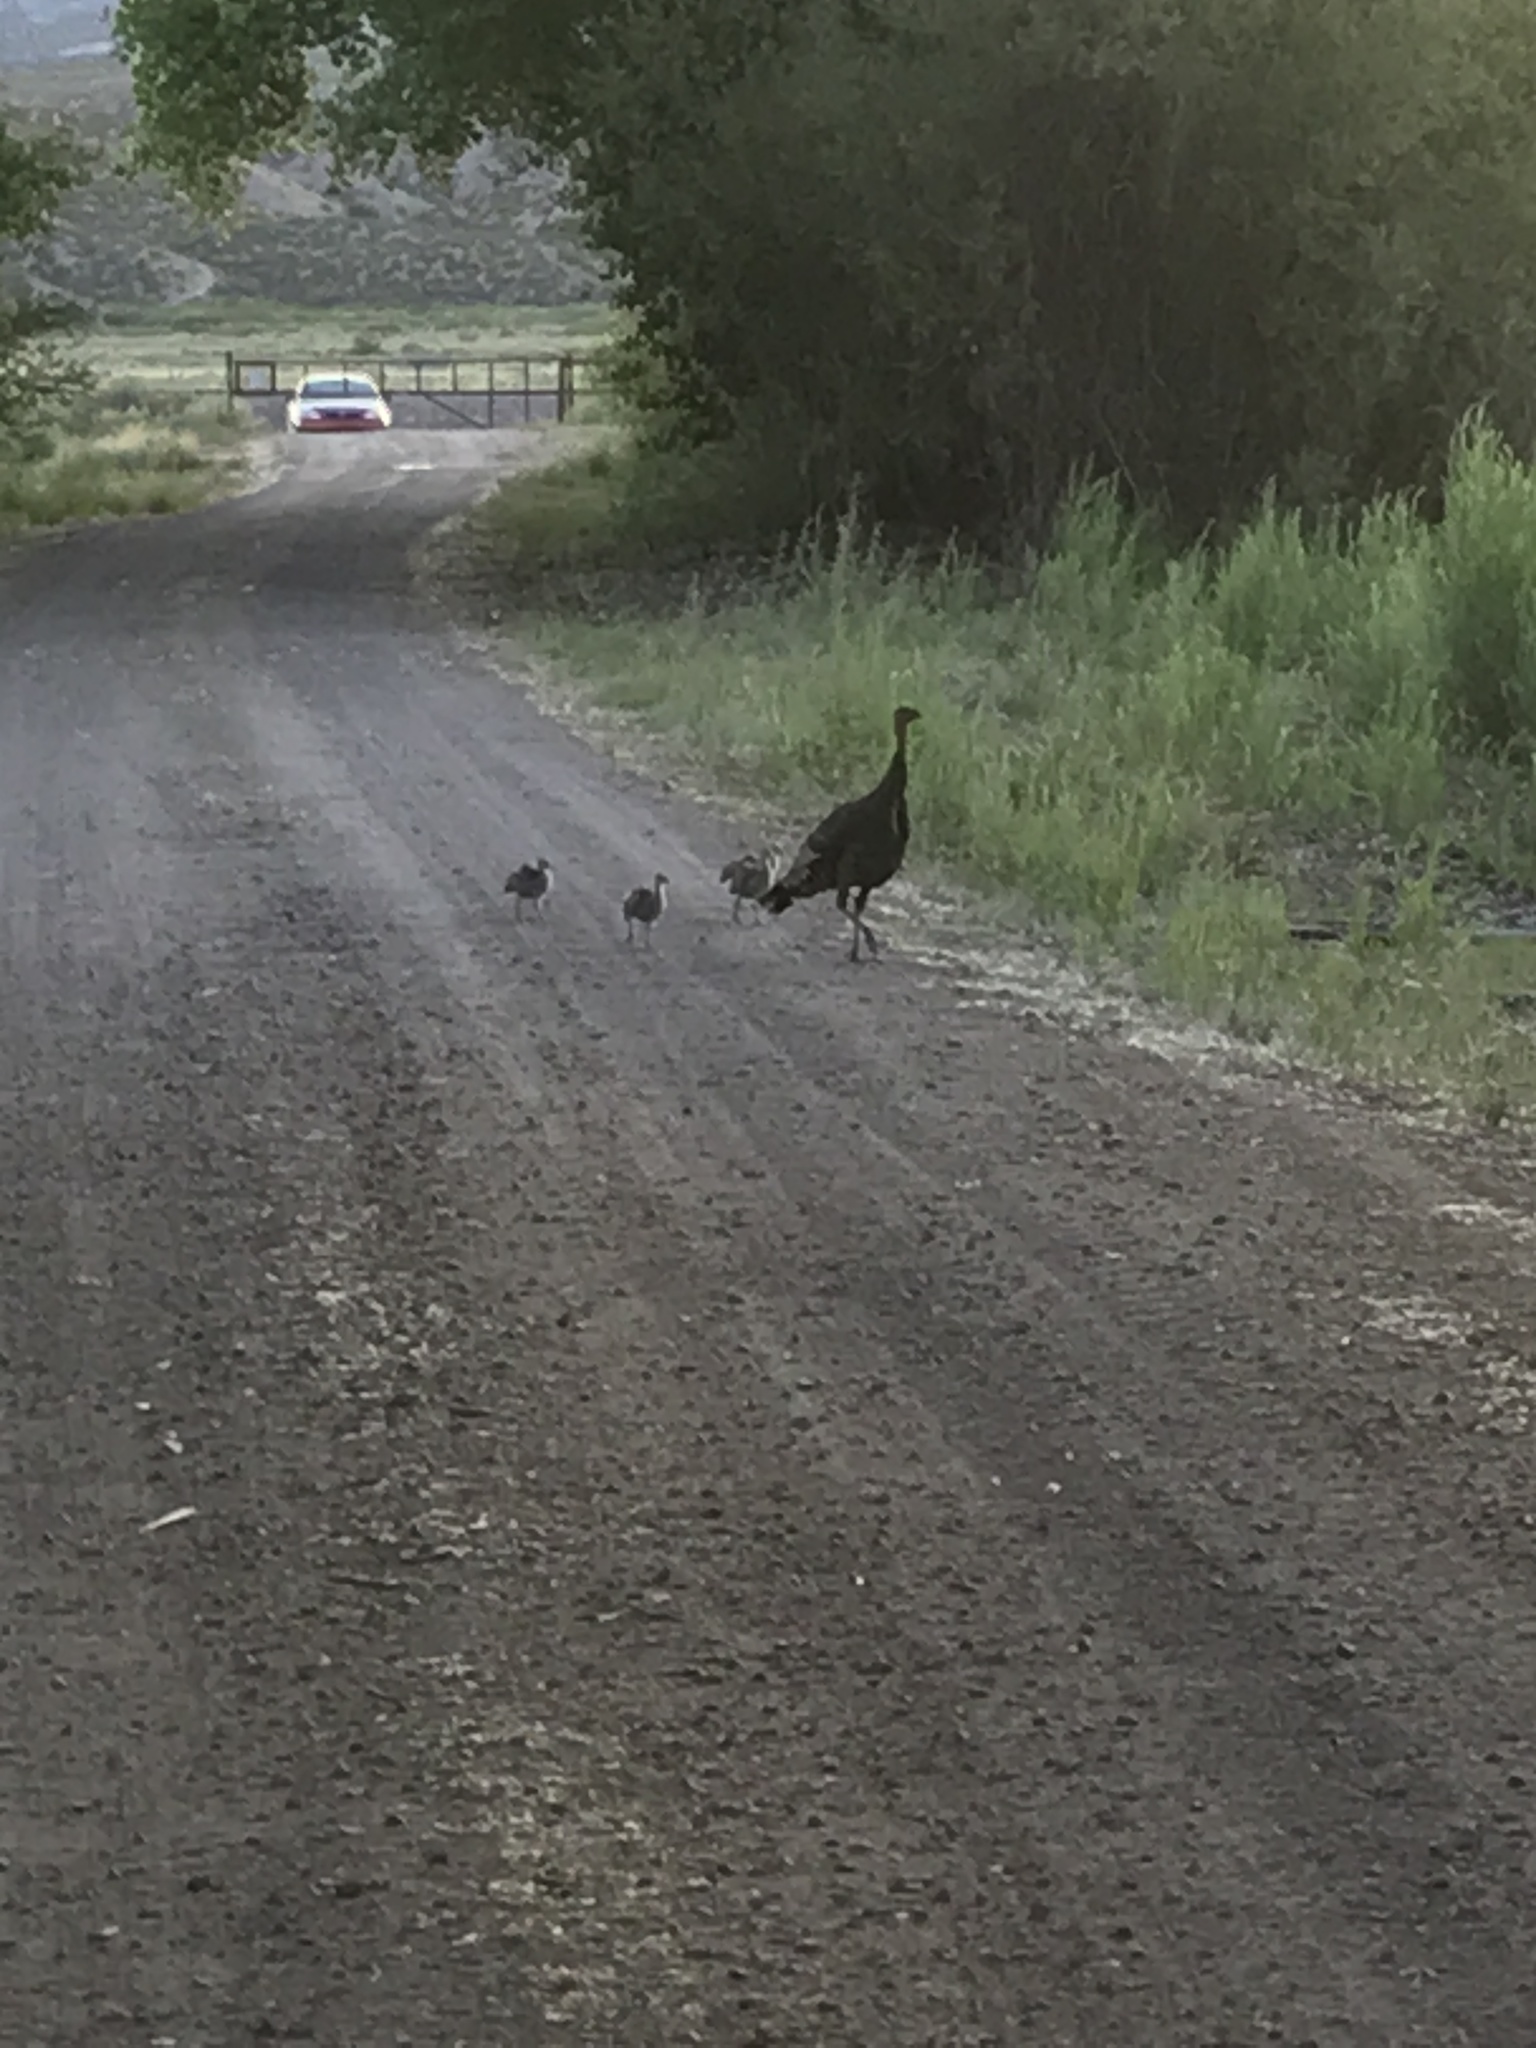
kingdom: Animalia
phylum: Chordata
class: Aves
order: Galliformes
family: Phasianidae
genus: Meleagris
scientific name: Meleagris gallopavo
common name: Wild turkey
